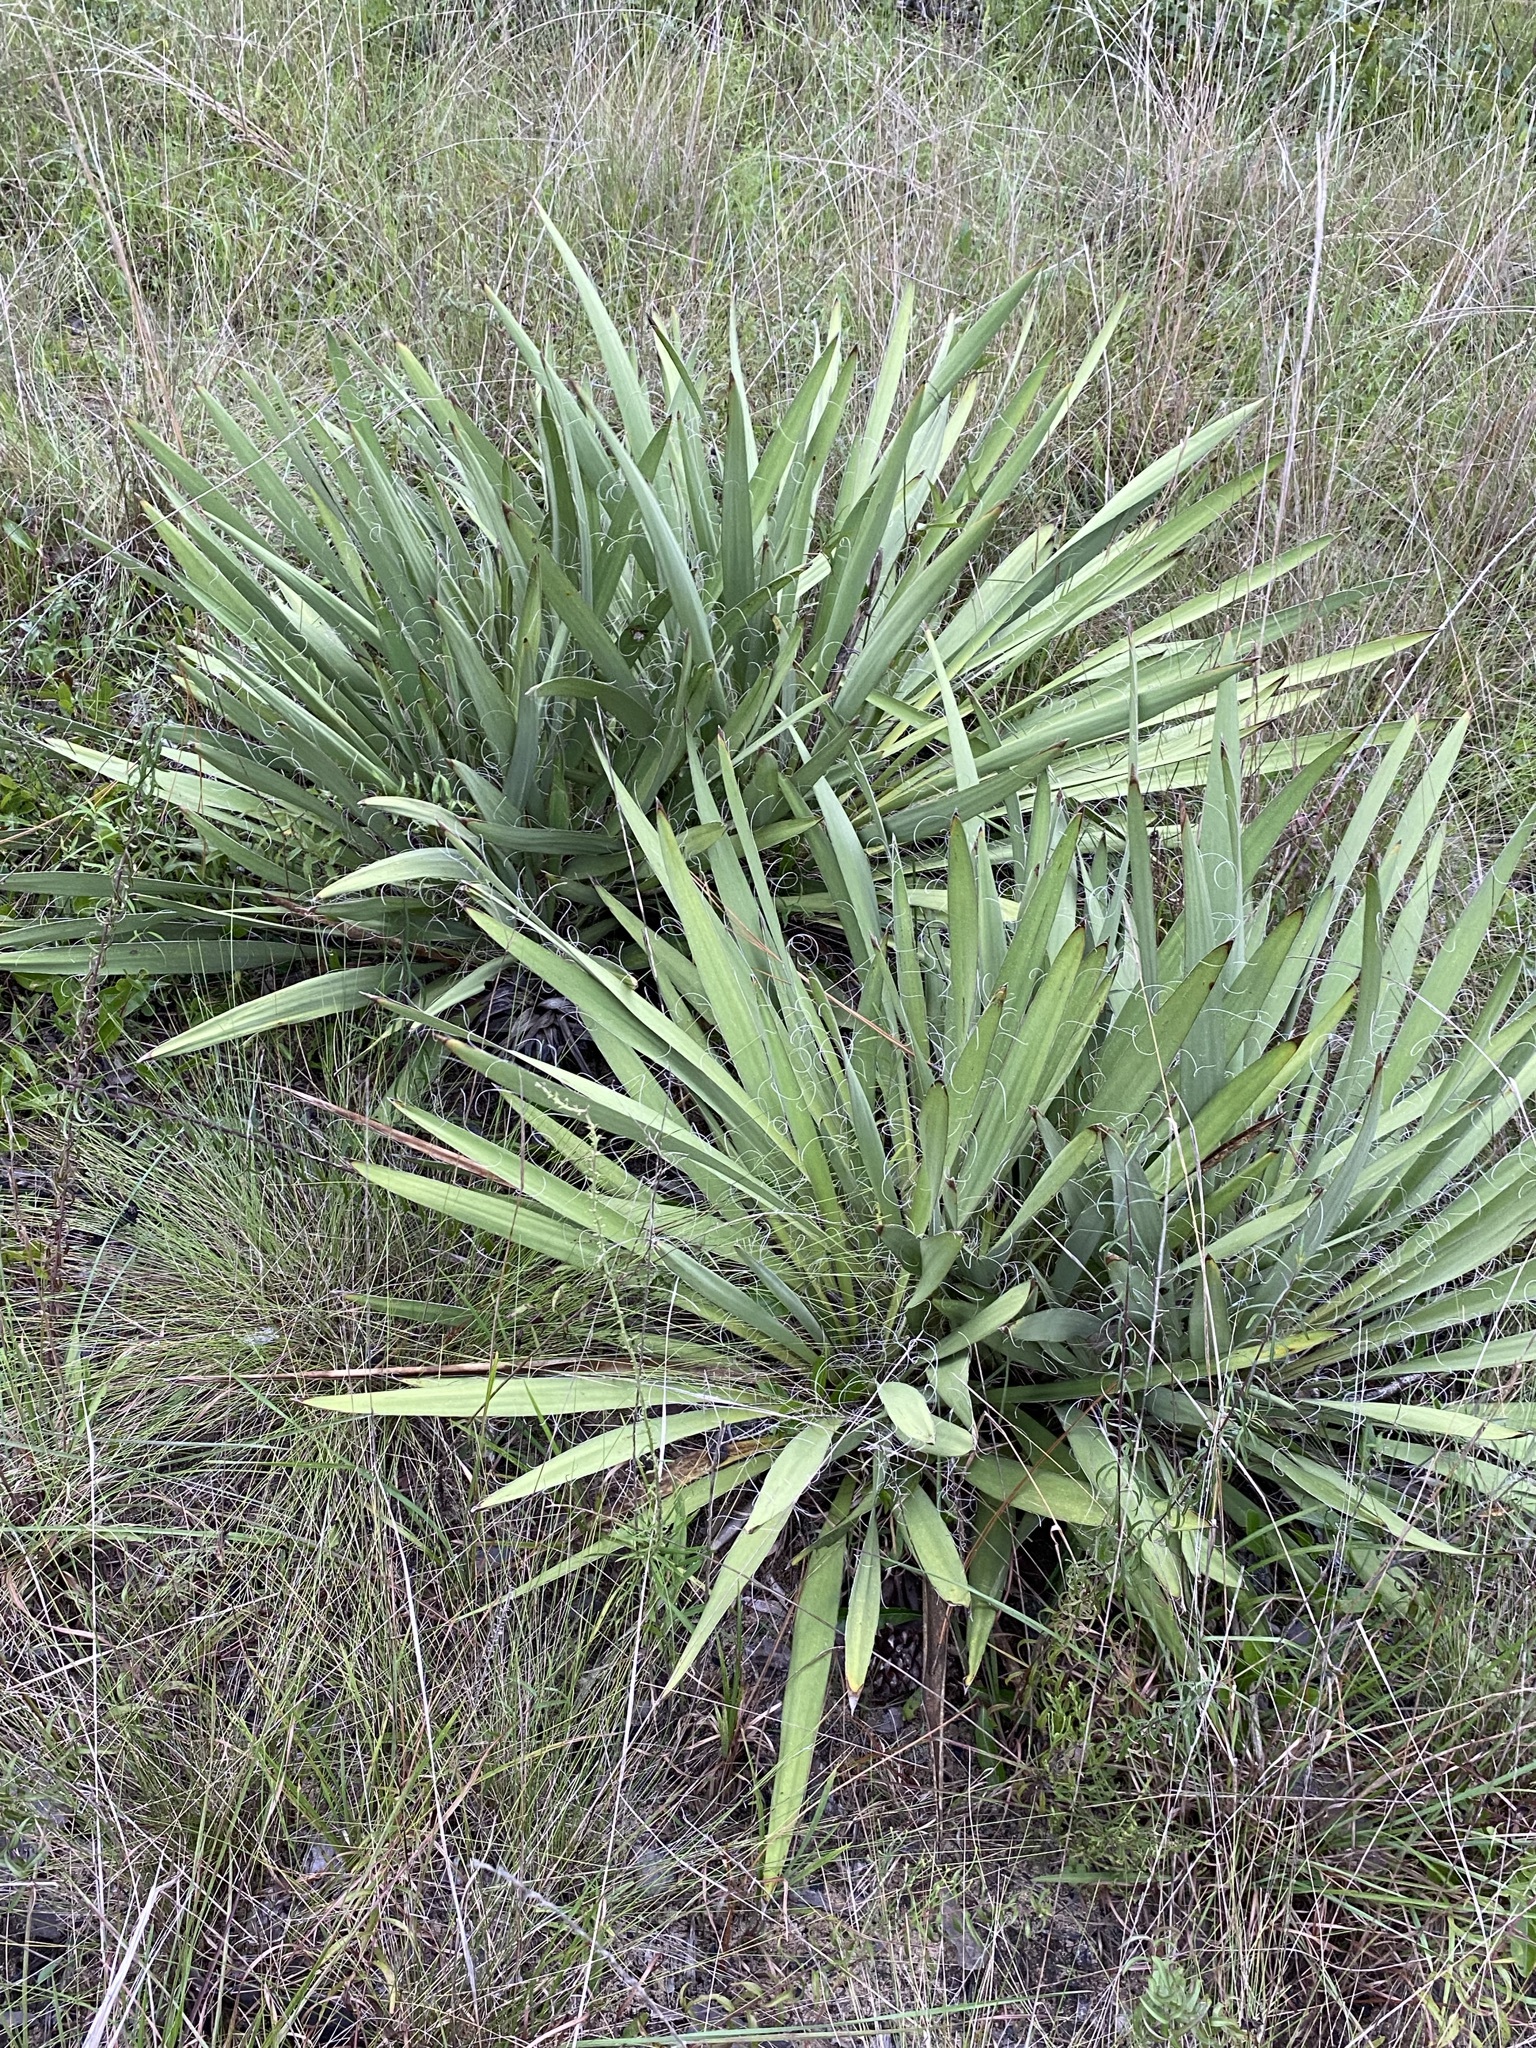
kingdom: Plantae
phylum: Tracheophyta
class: Liliopsida
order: Asparagales
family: Asparagaceae
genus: Yucca
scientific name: Yucca filamentosa
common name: Adam's-needle
